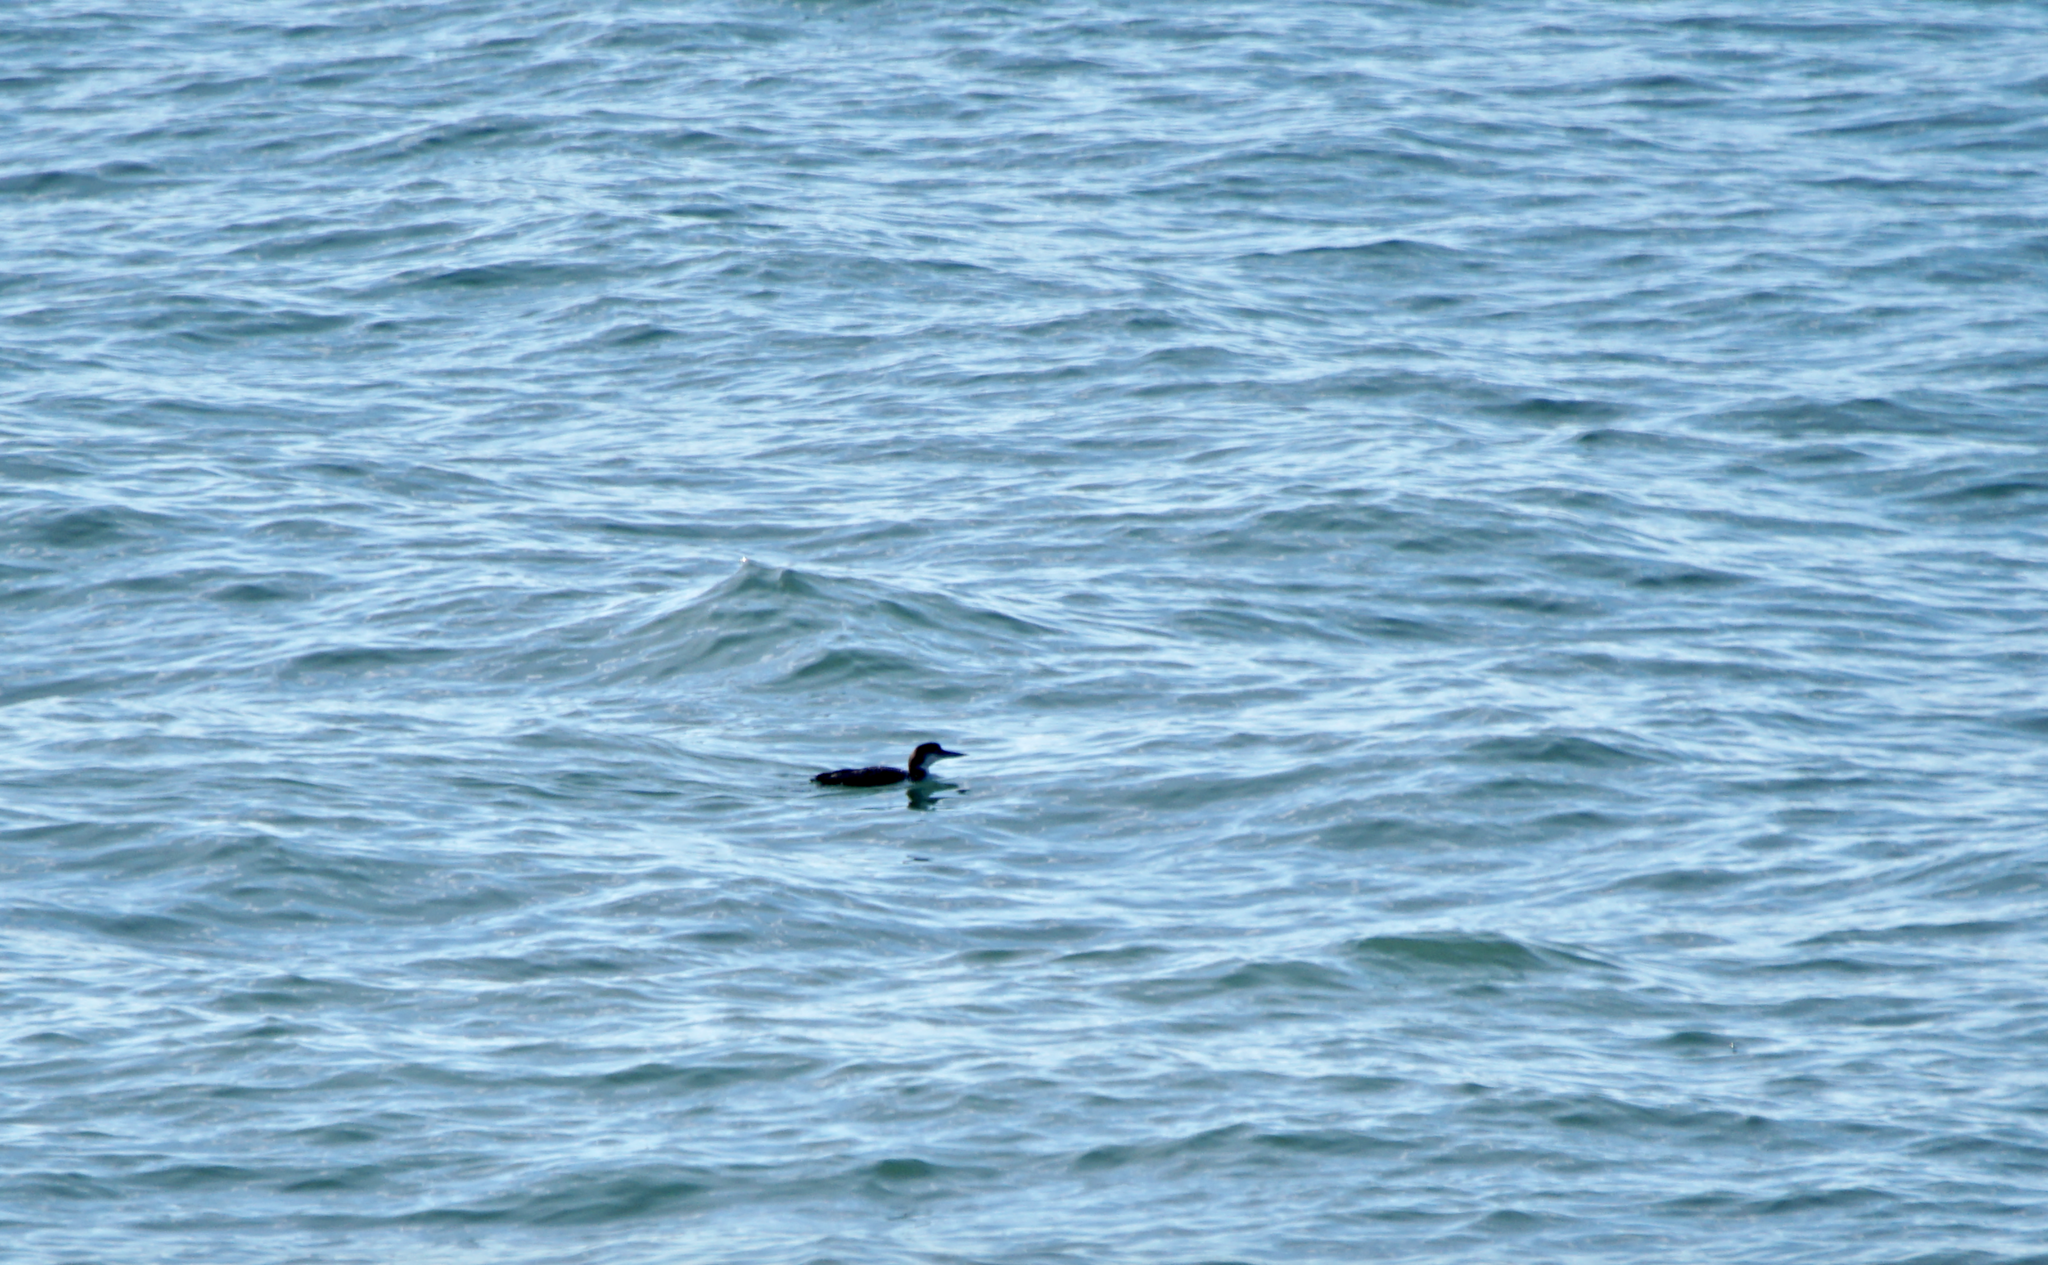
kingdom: Animalia
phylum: Chordata
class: Aves
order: Gaviiformes
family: Gaviidae
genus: Gavia
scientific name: Gavia immer
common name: Common loon
